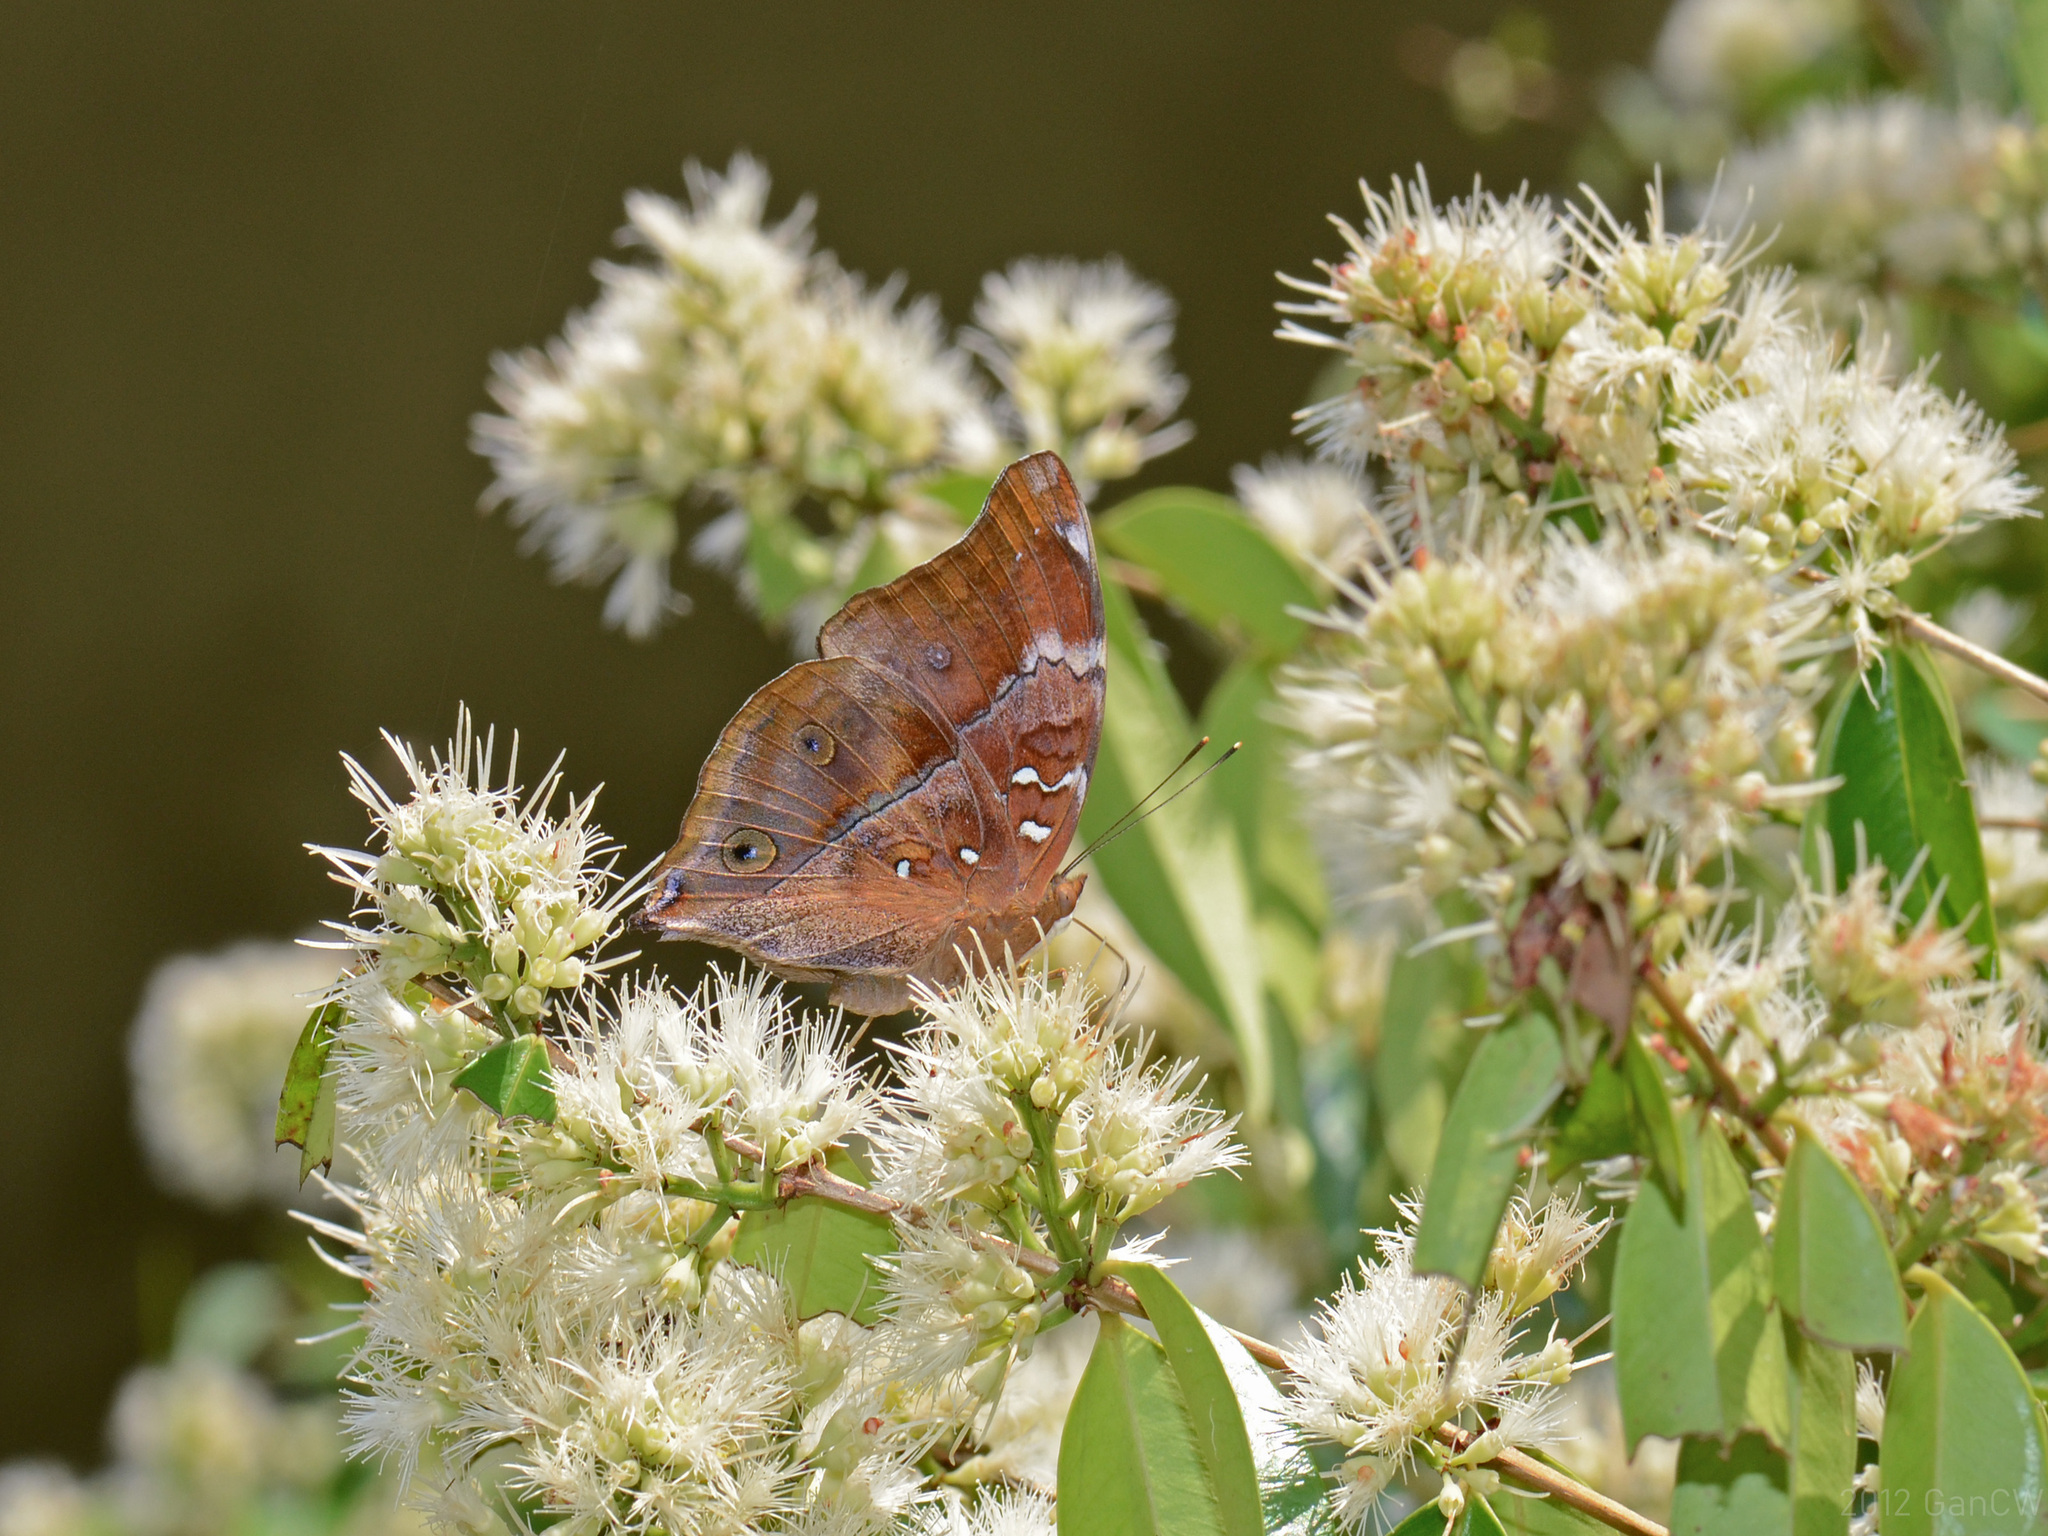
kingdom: Animalia
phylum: Arthropoda
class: Insecta
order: Lepidoptera
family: Nymphalidae
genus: Doleschallia
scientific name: Doleschallia bisaltide
